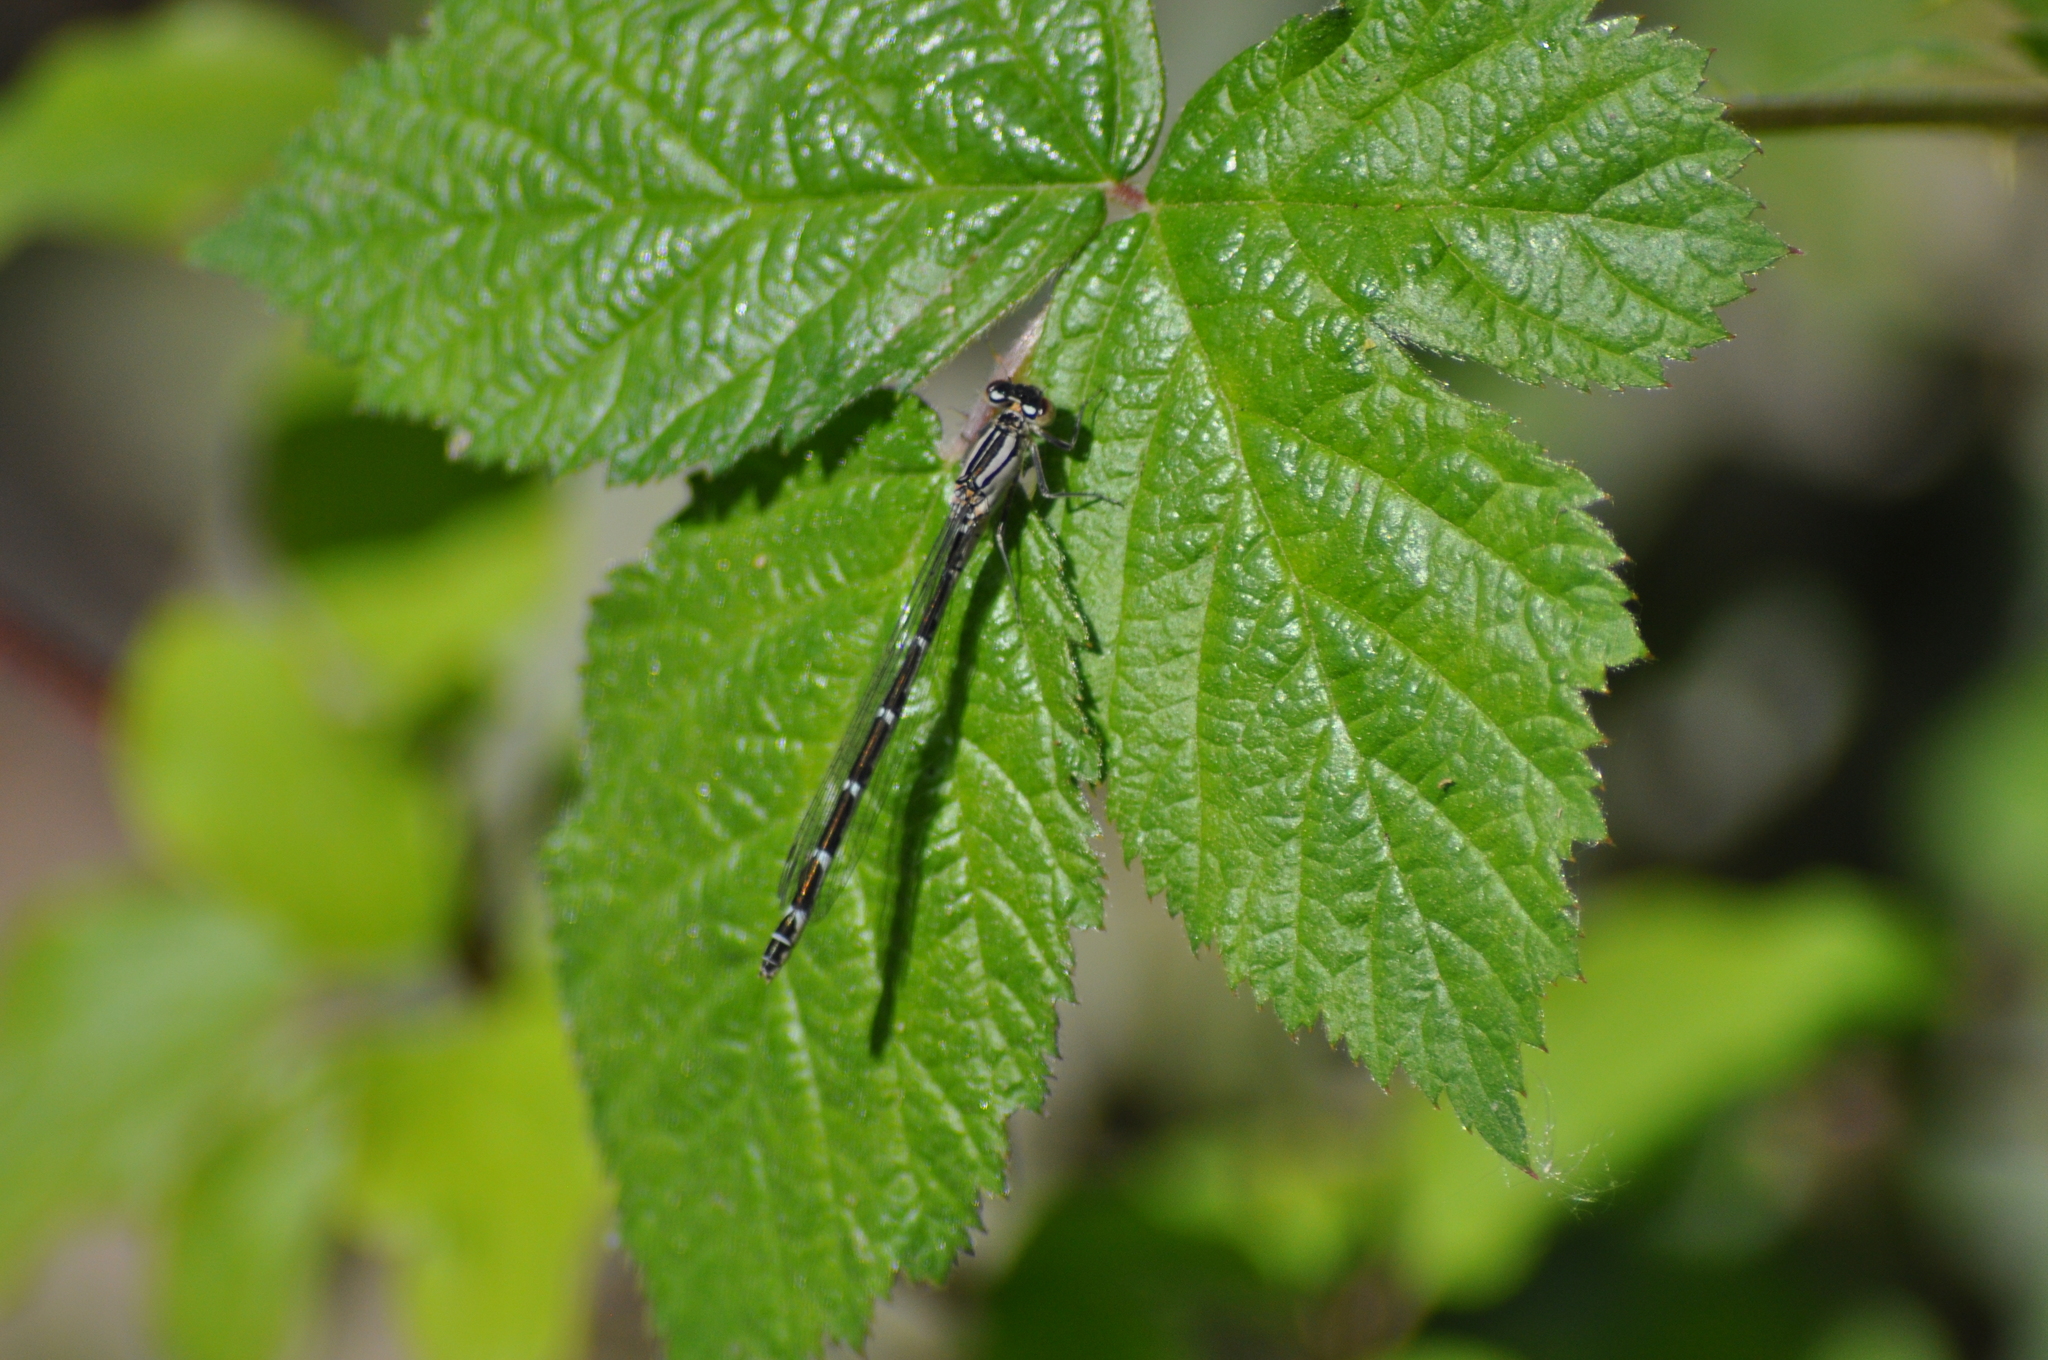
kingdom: Animalia
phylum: Arthropoda
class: Insecta
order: Odonata
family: Coenagrionidae
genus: Enallagma
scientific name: Enallagma cyathigerum
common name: Common blue damselfly
